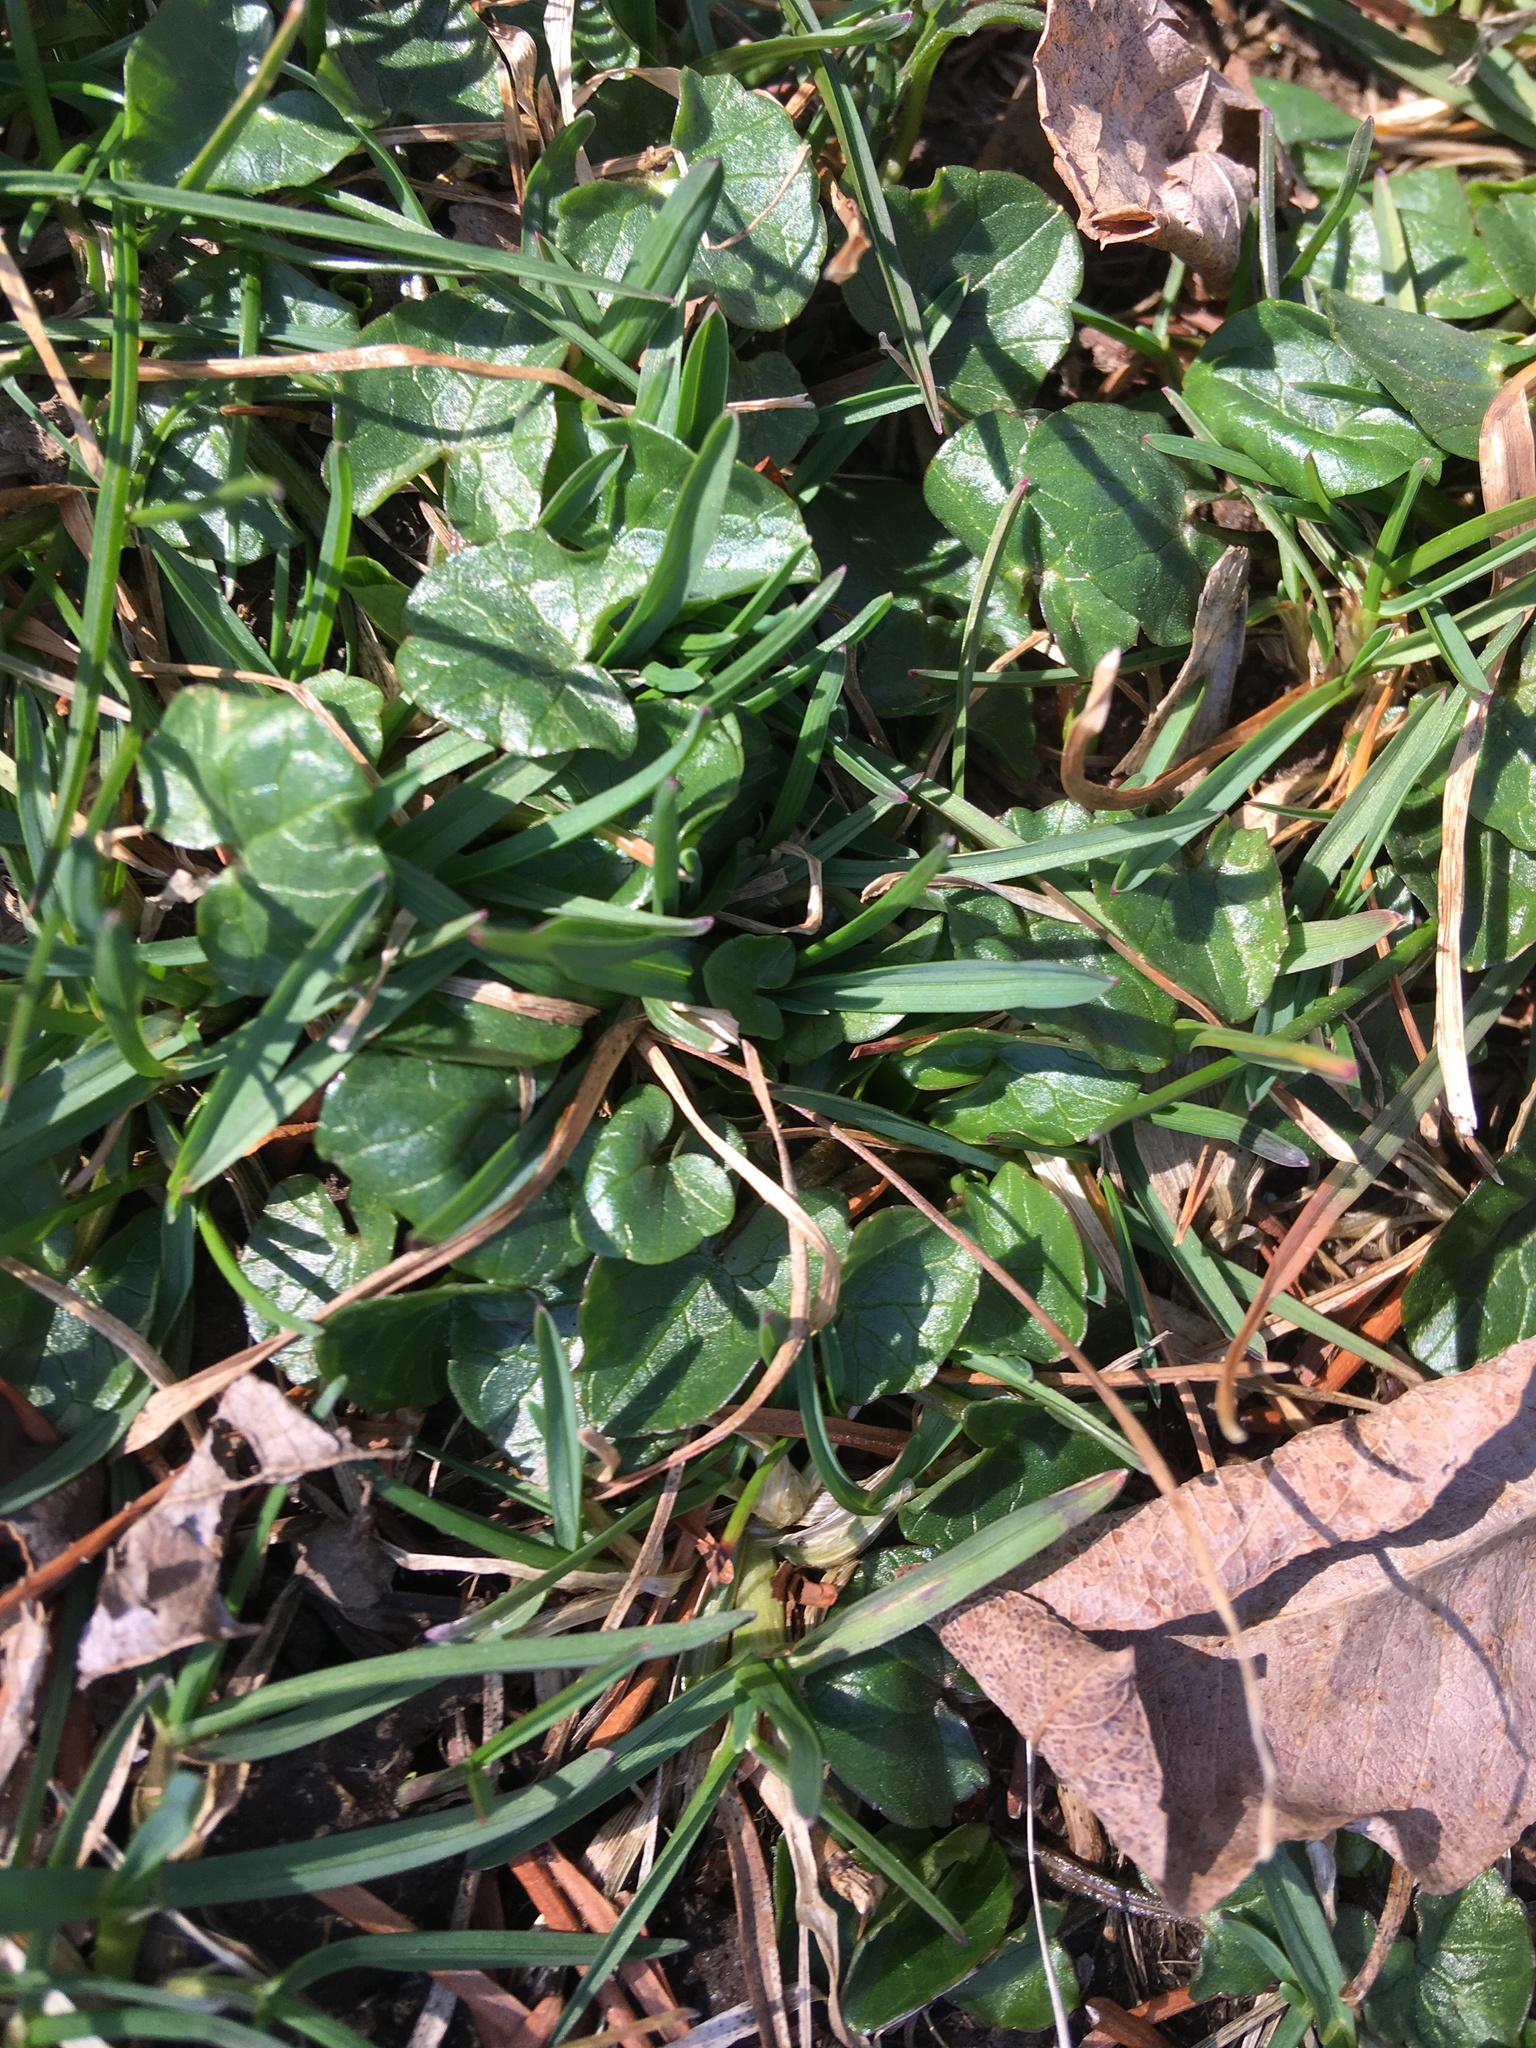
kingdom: Plantae
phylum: Tracheophyta
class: Magnoliopsida
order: Ranunculales
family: Ranunculaceae
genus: Ficaria
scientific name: Ficaria verna
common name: Lesser celandine
